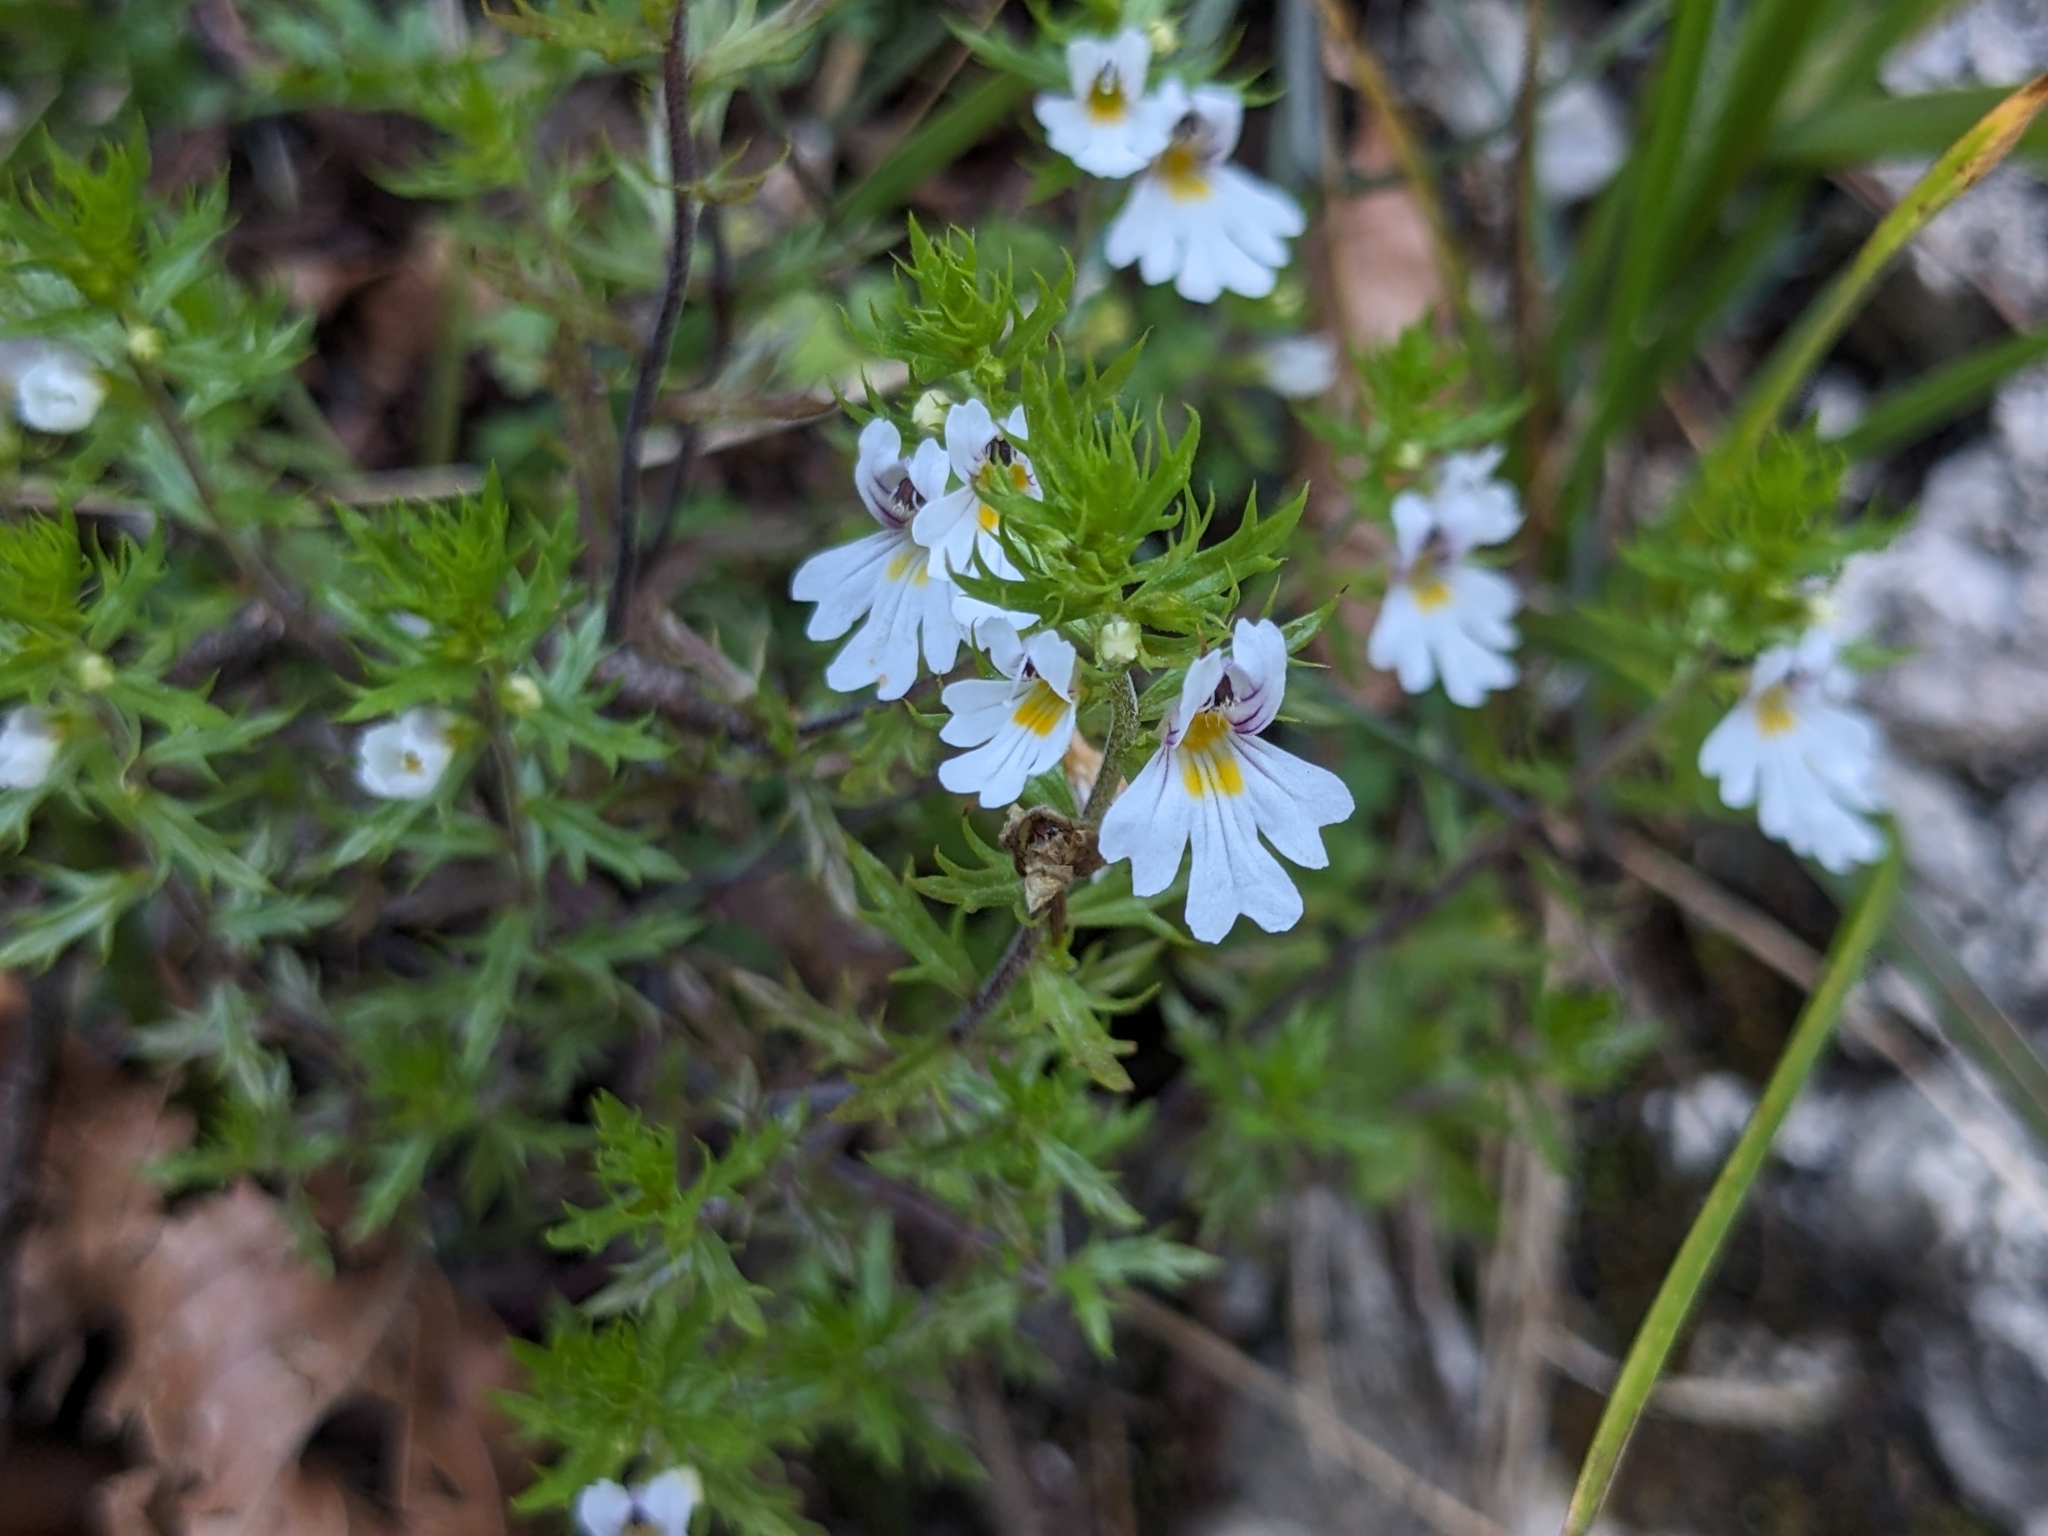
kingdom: Plantae
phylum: Tracheophyta
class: Magnoliopsida
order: Lamiales
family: Orobanchaceae
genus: Euphrasia
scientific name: Euphrasia cuspidata
